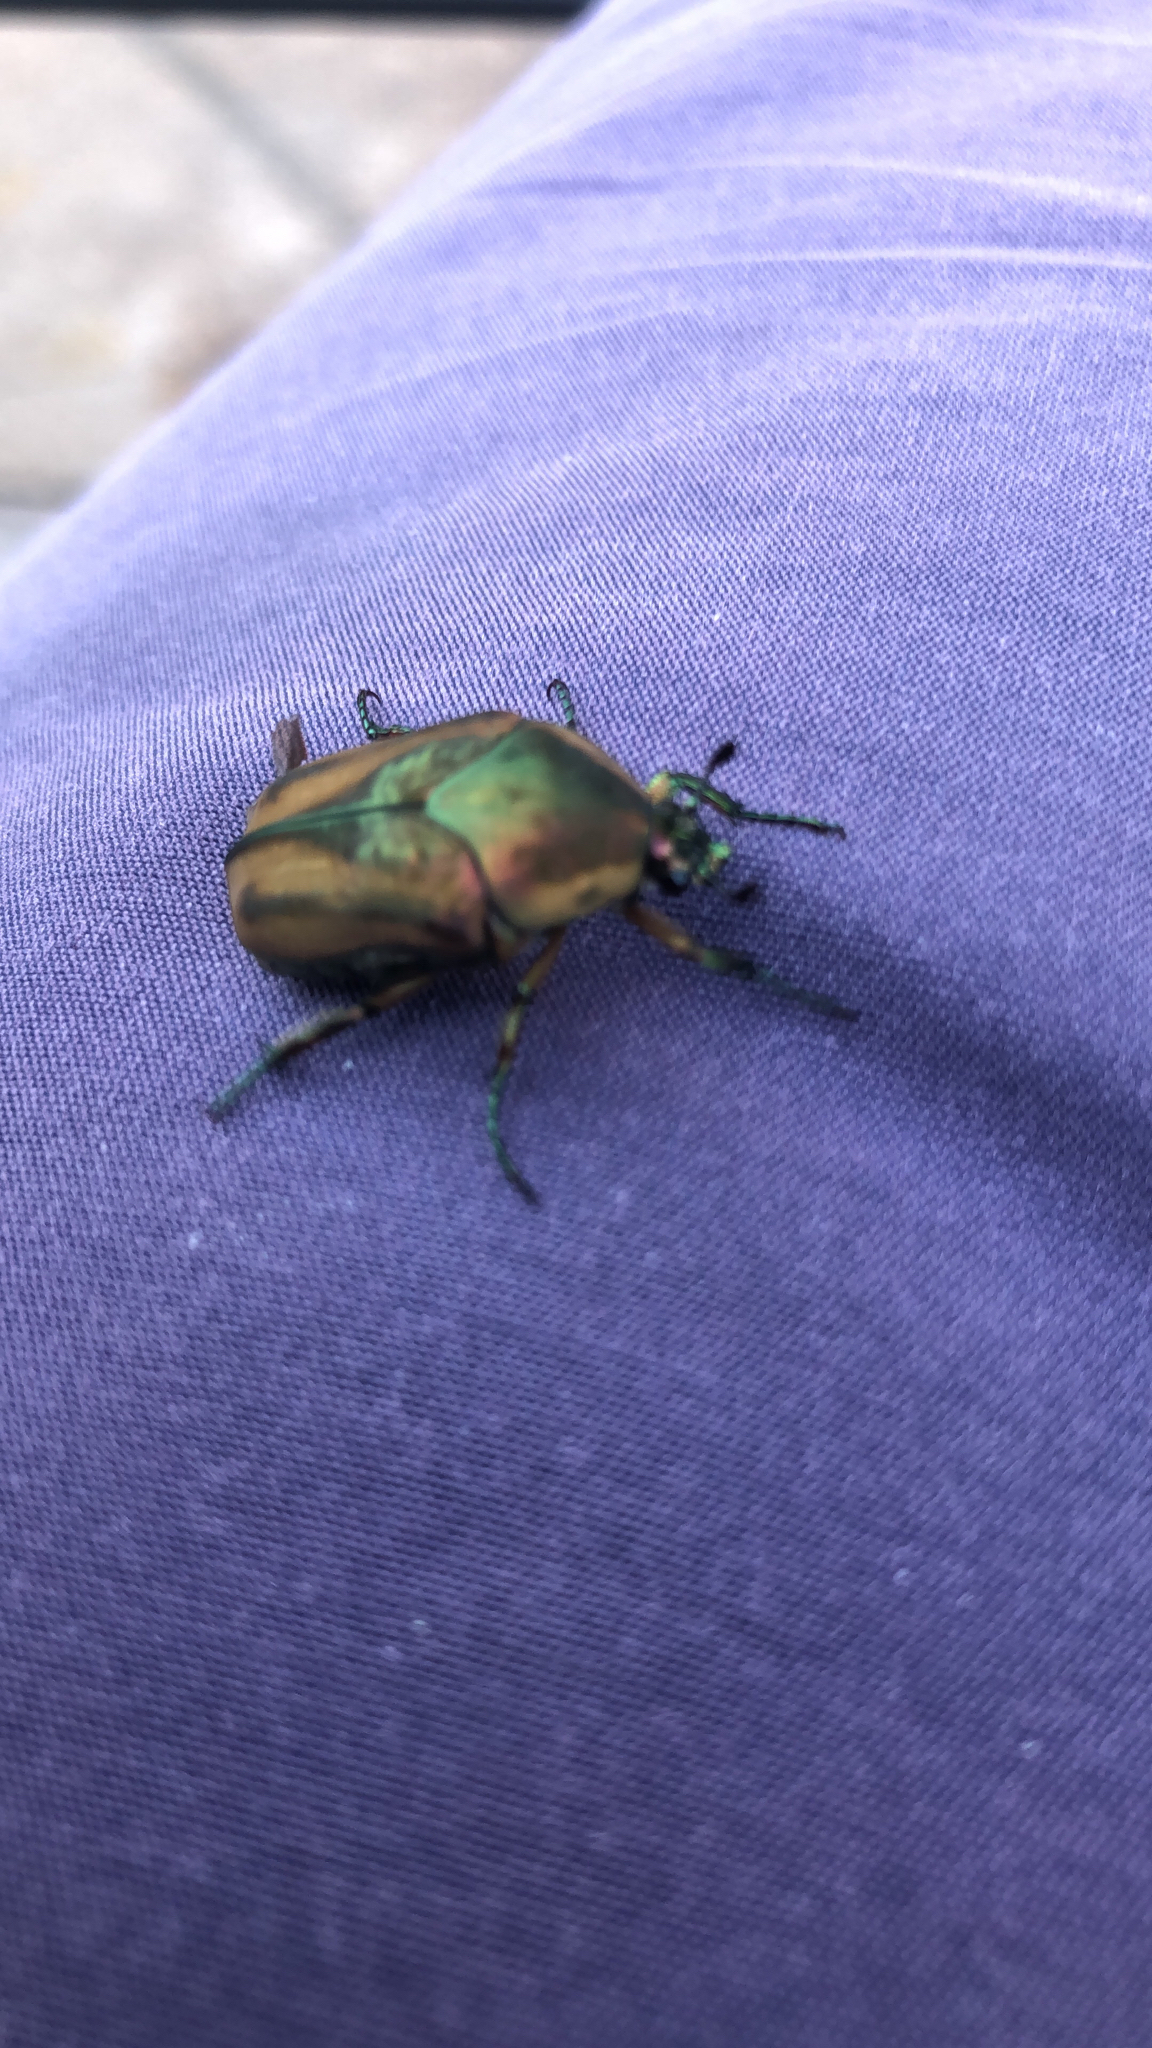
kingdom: Animalia
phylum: Arthropoda
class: Insecta
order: Coleoptera
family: Scarabaeidae
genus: Cotinis
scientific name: Cotinis nitida
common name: Common green june beetle
